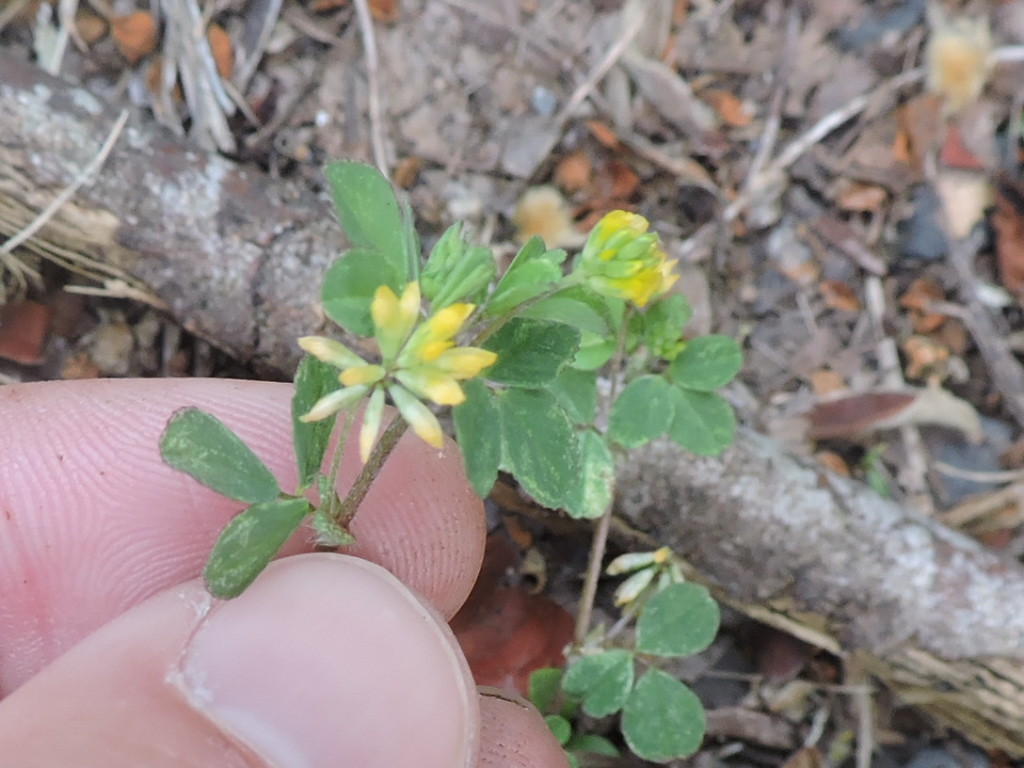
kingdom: Plantae
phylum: Tracheophyta
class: Magnoliopsida
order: Fabales
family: Fabaceae
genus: Trifolium
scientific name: Trifolium dubium
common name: Suckling clover
